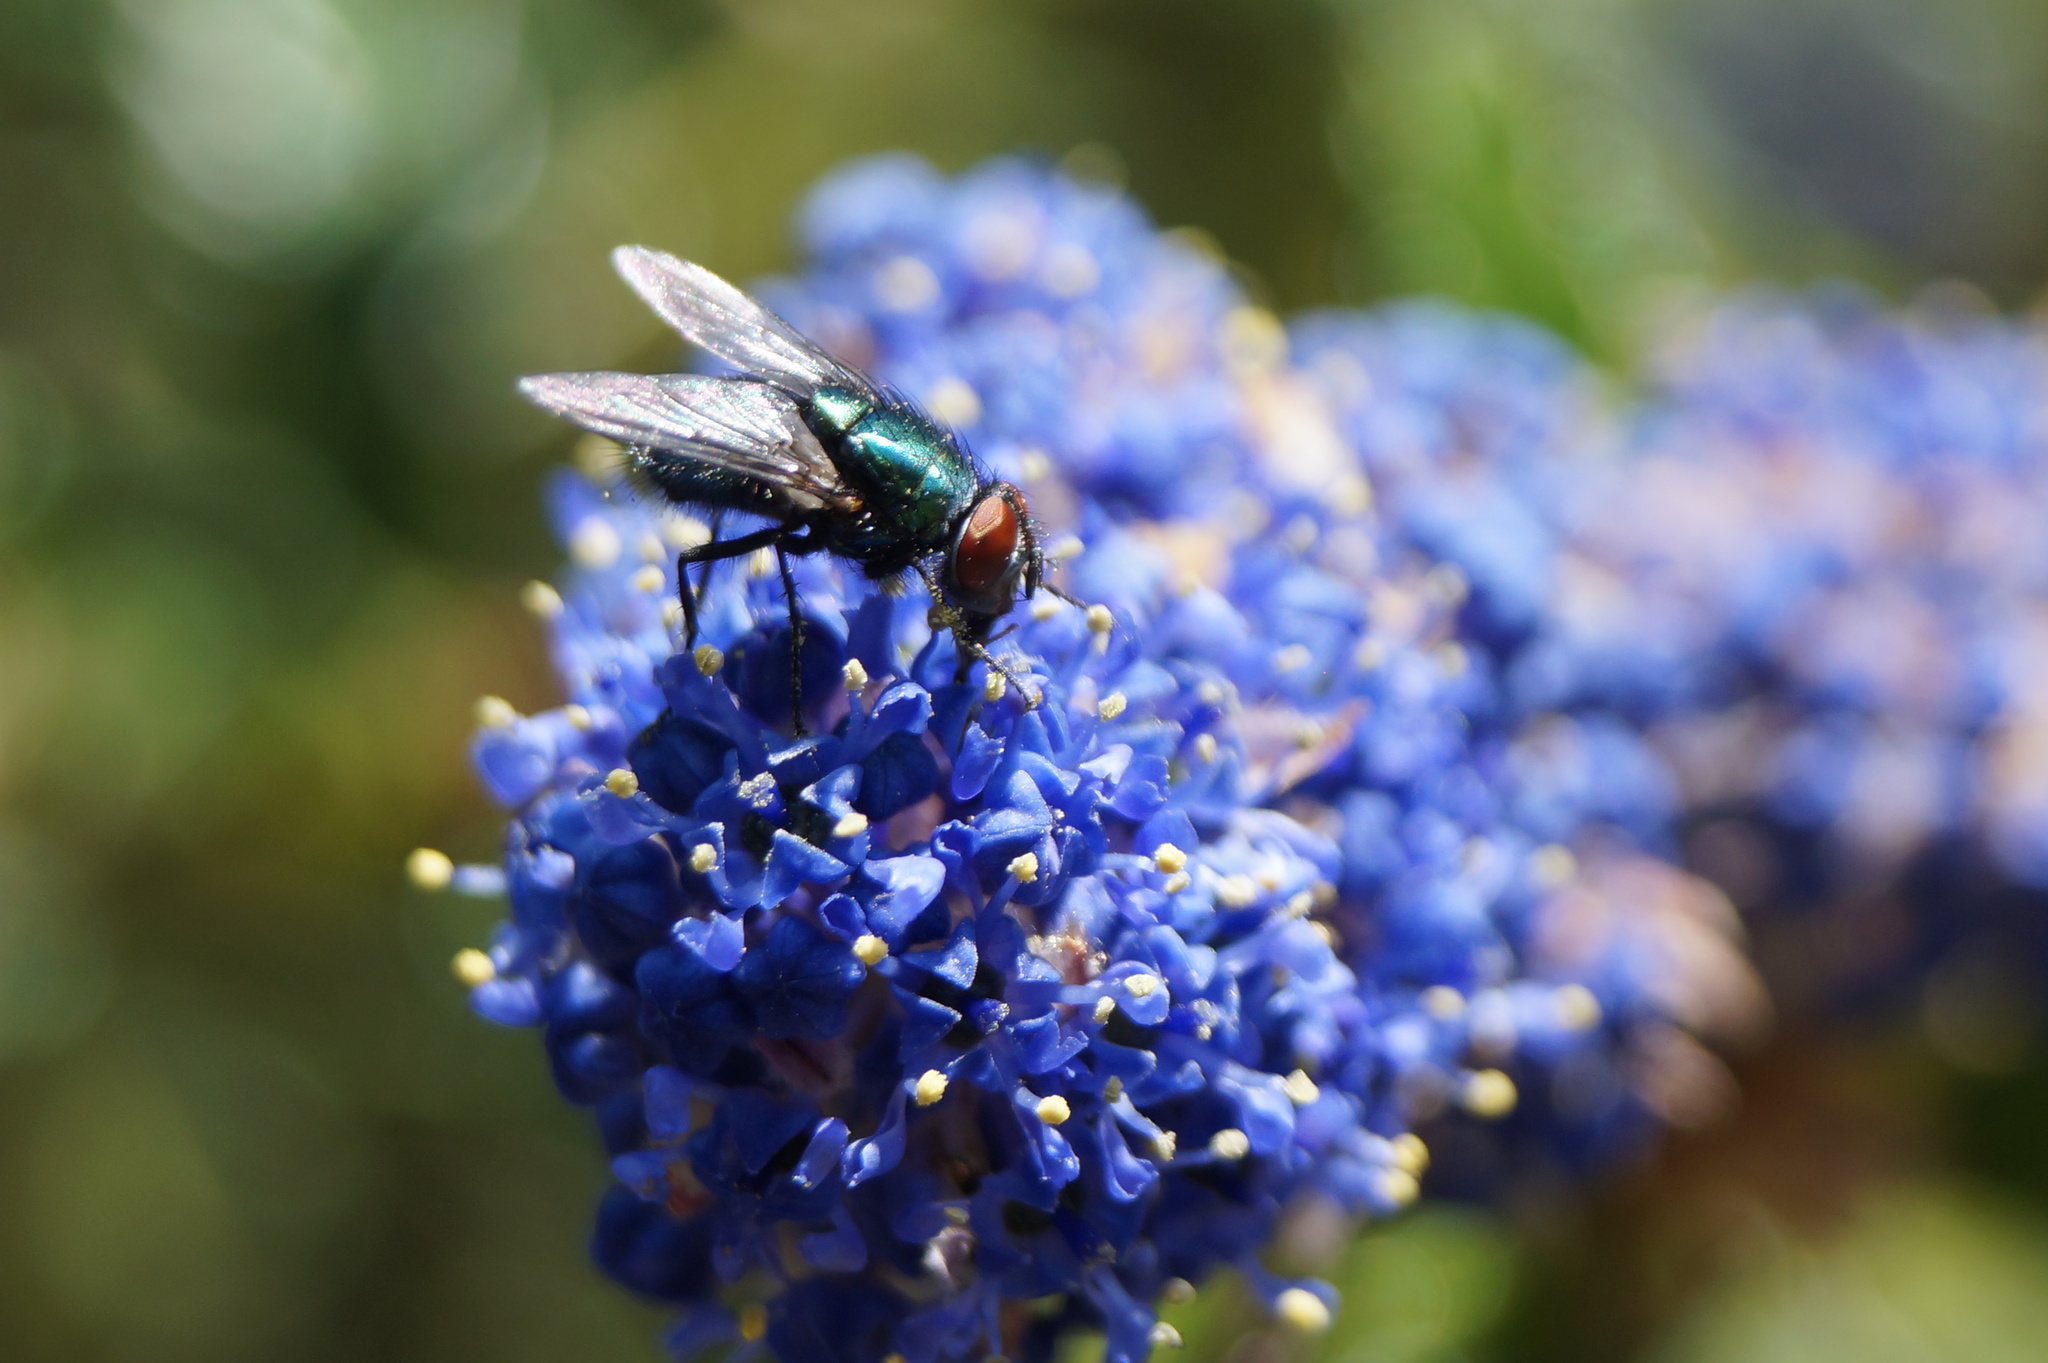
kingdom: Animalia
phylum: Arthropoda
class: Insecta
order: Diptera
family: Calliphoridae
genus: Lucilia
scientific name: Lucilia sericata
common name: Blow fly
